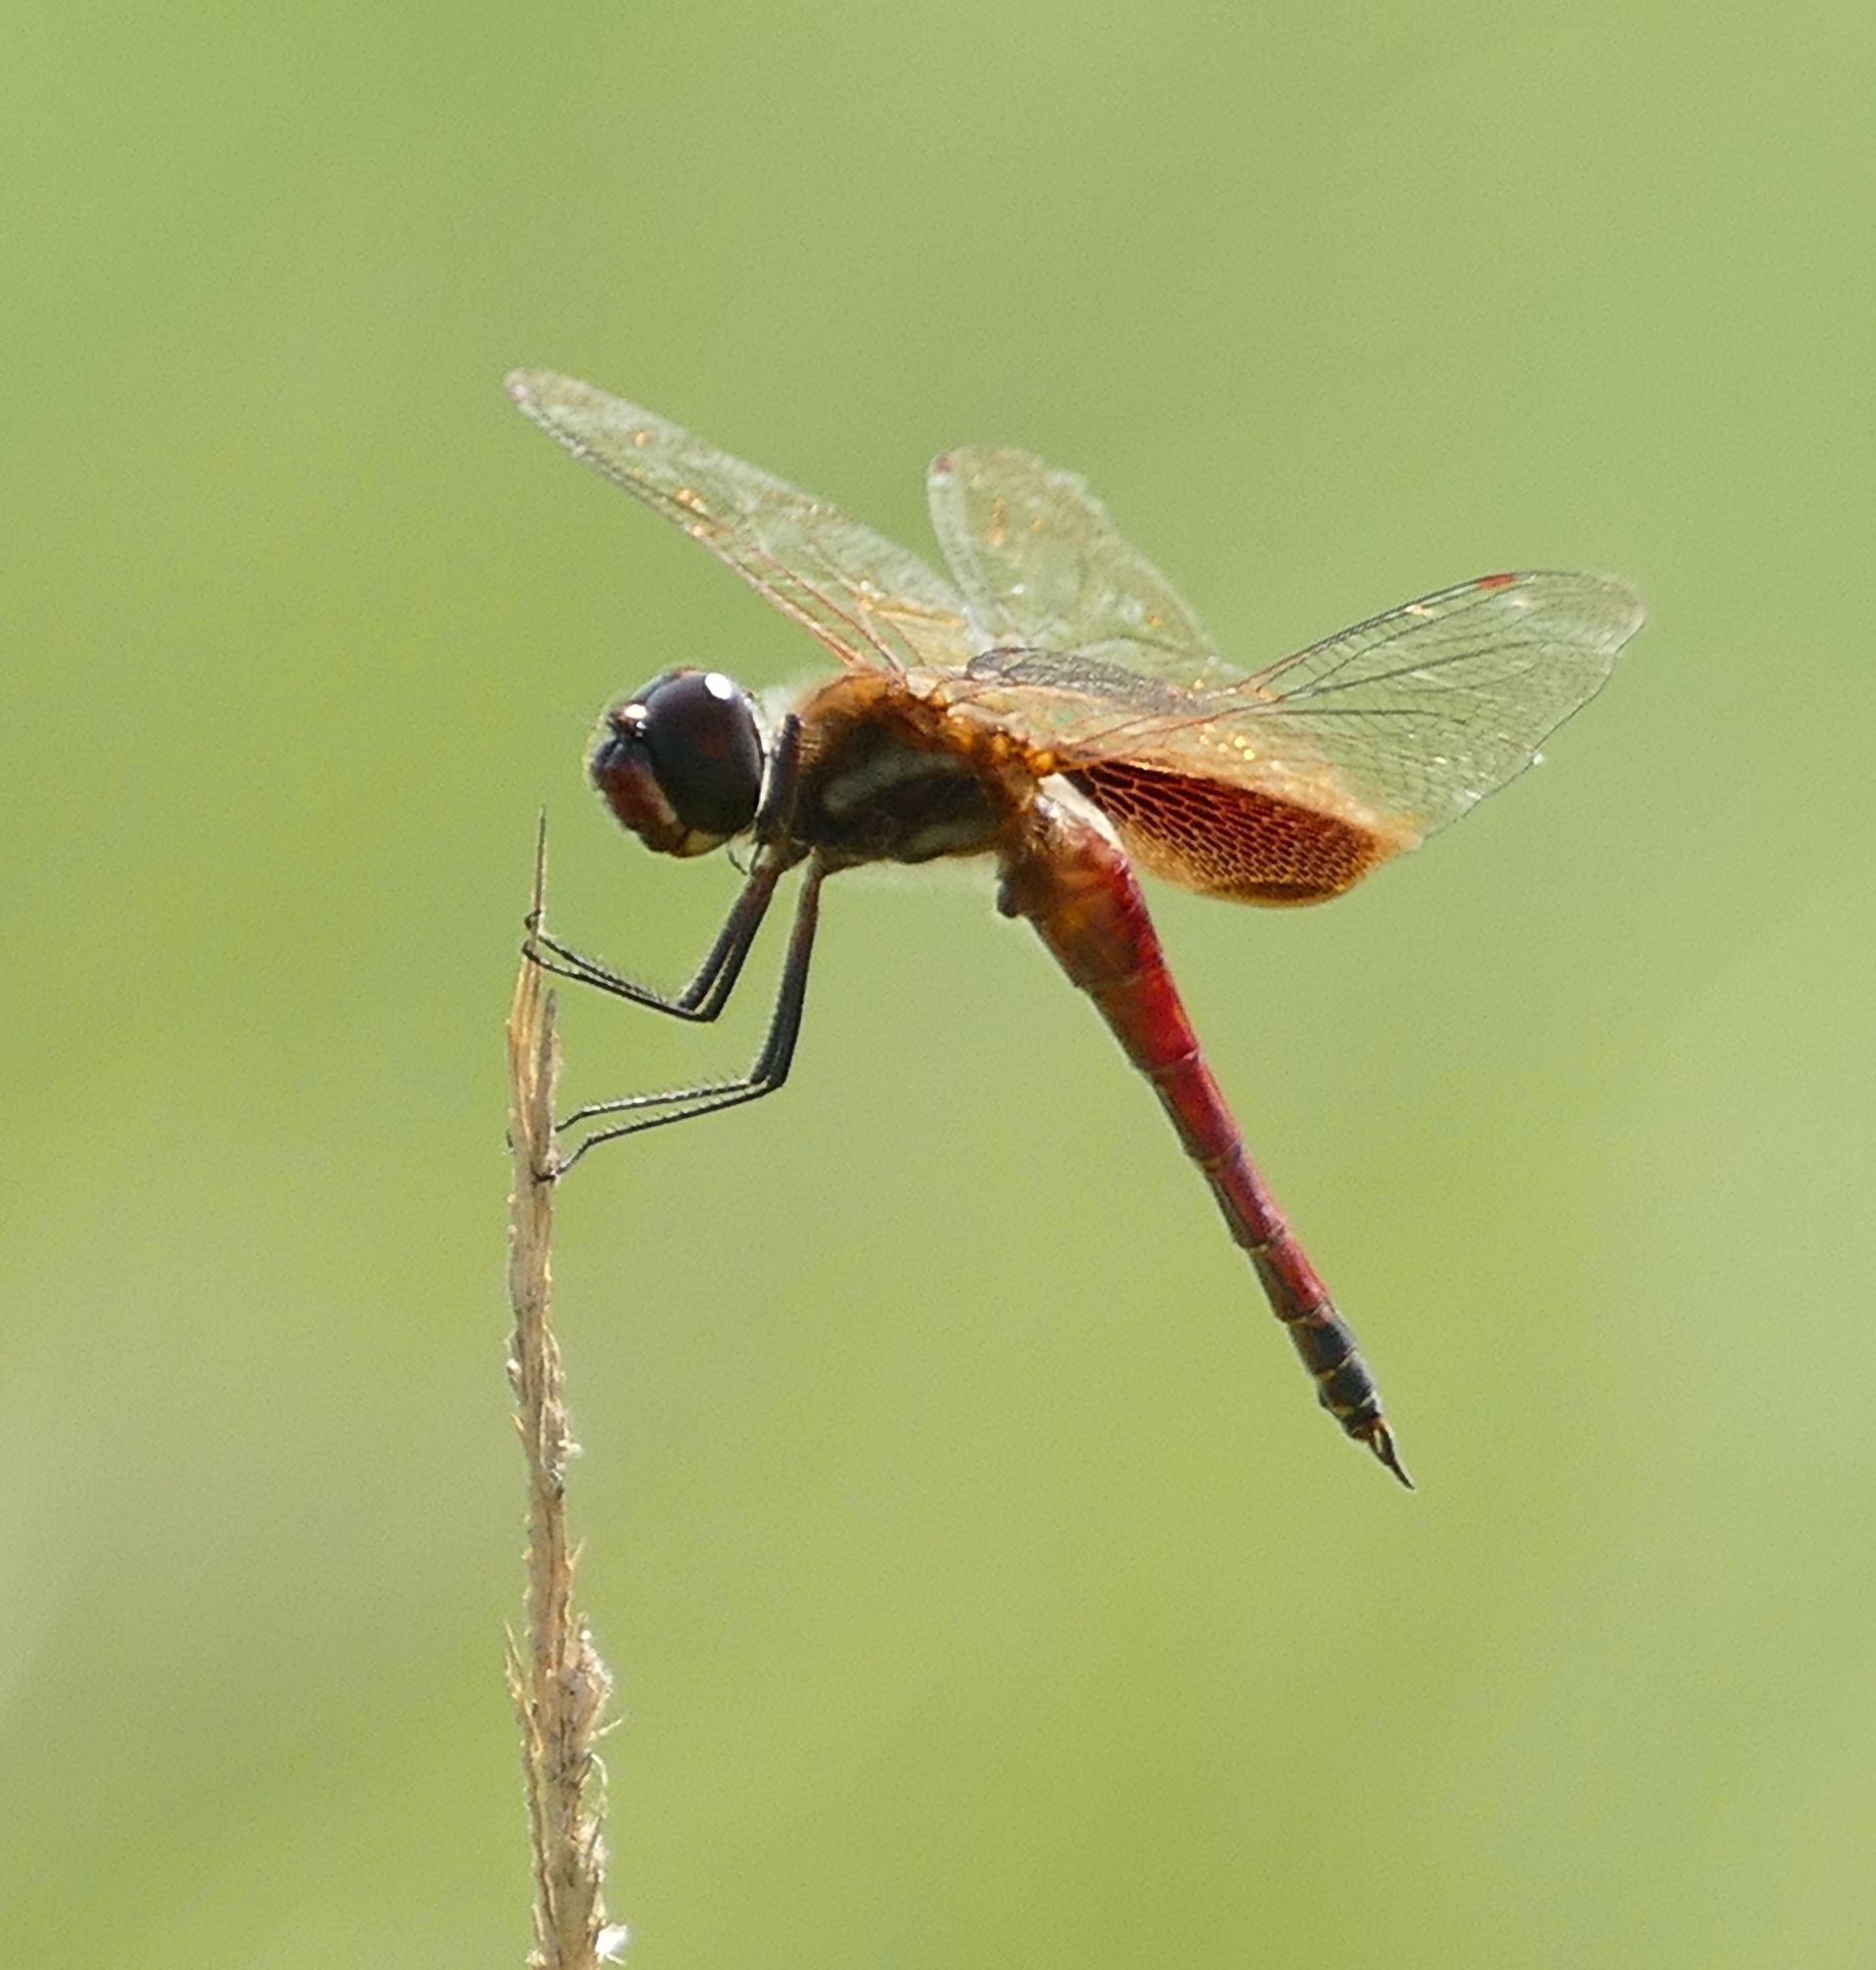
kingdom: Animalia
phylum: Arthropoda
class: Insecta
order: Odonata
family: Libellulidae
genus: Tramea
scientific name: Tramea darwini
